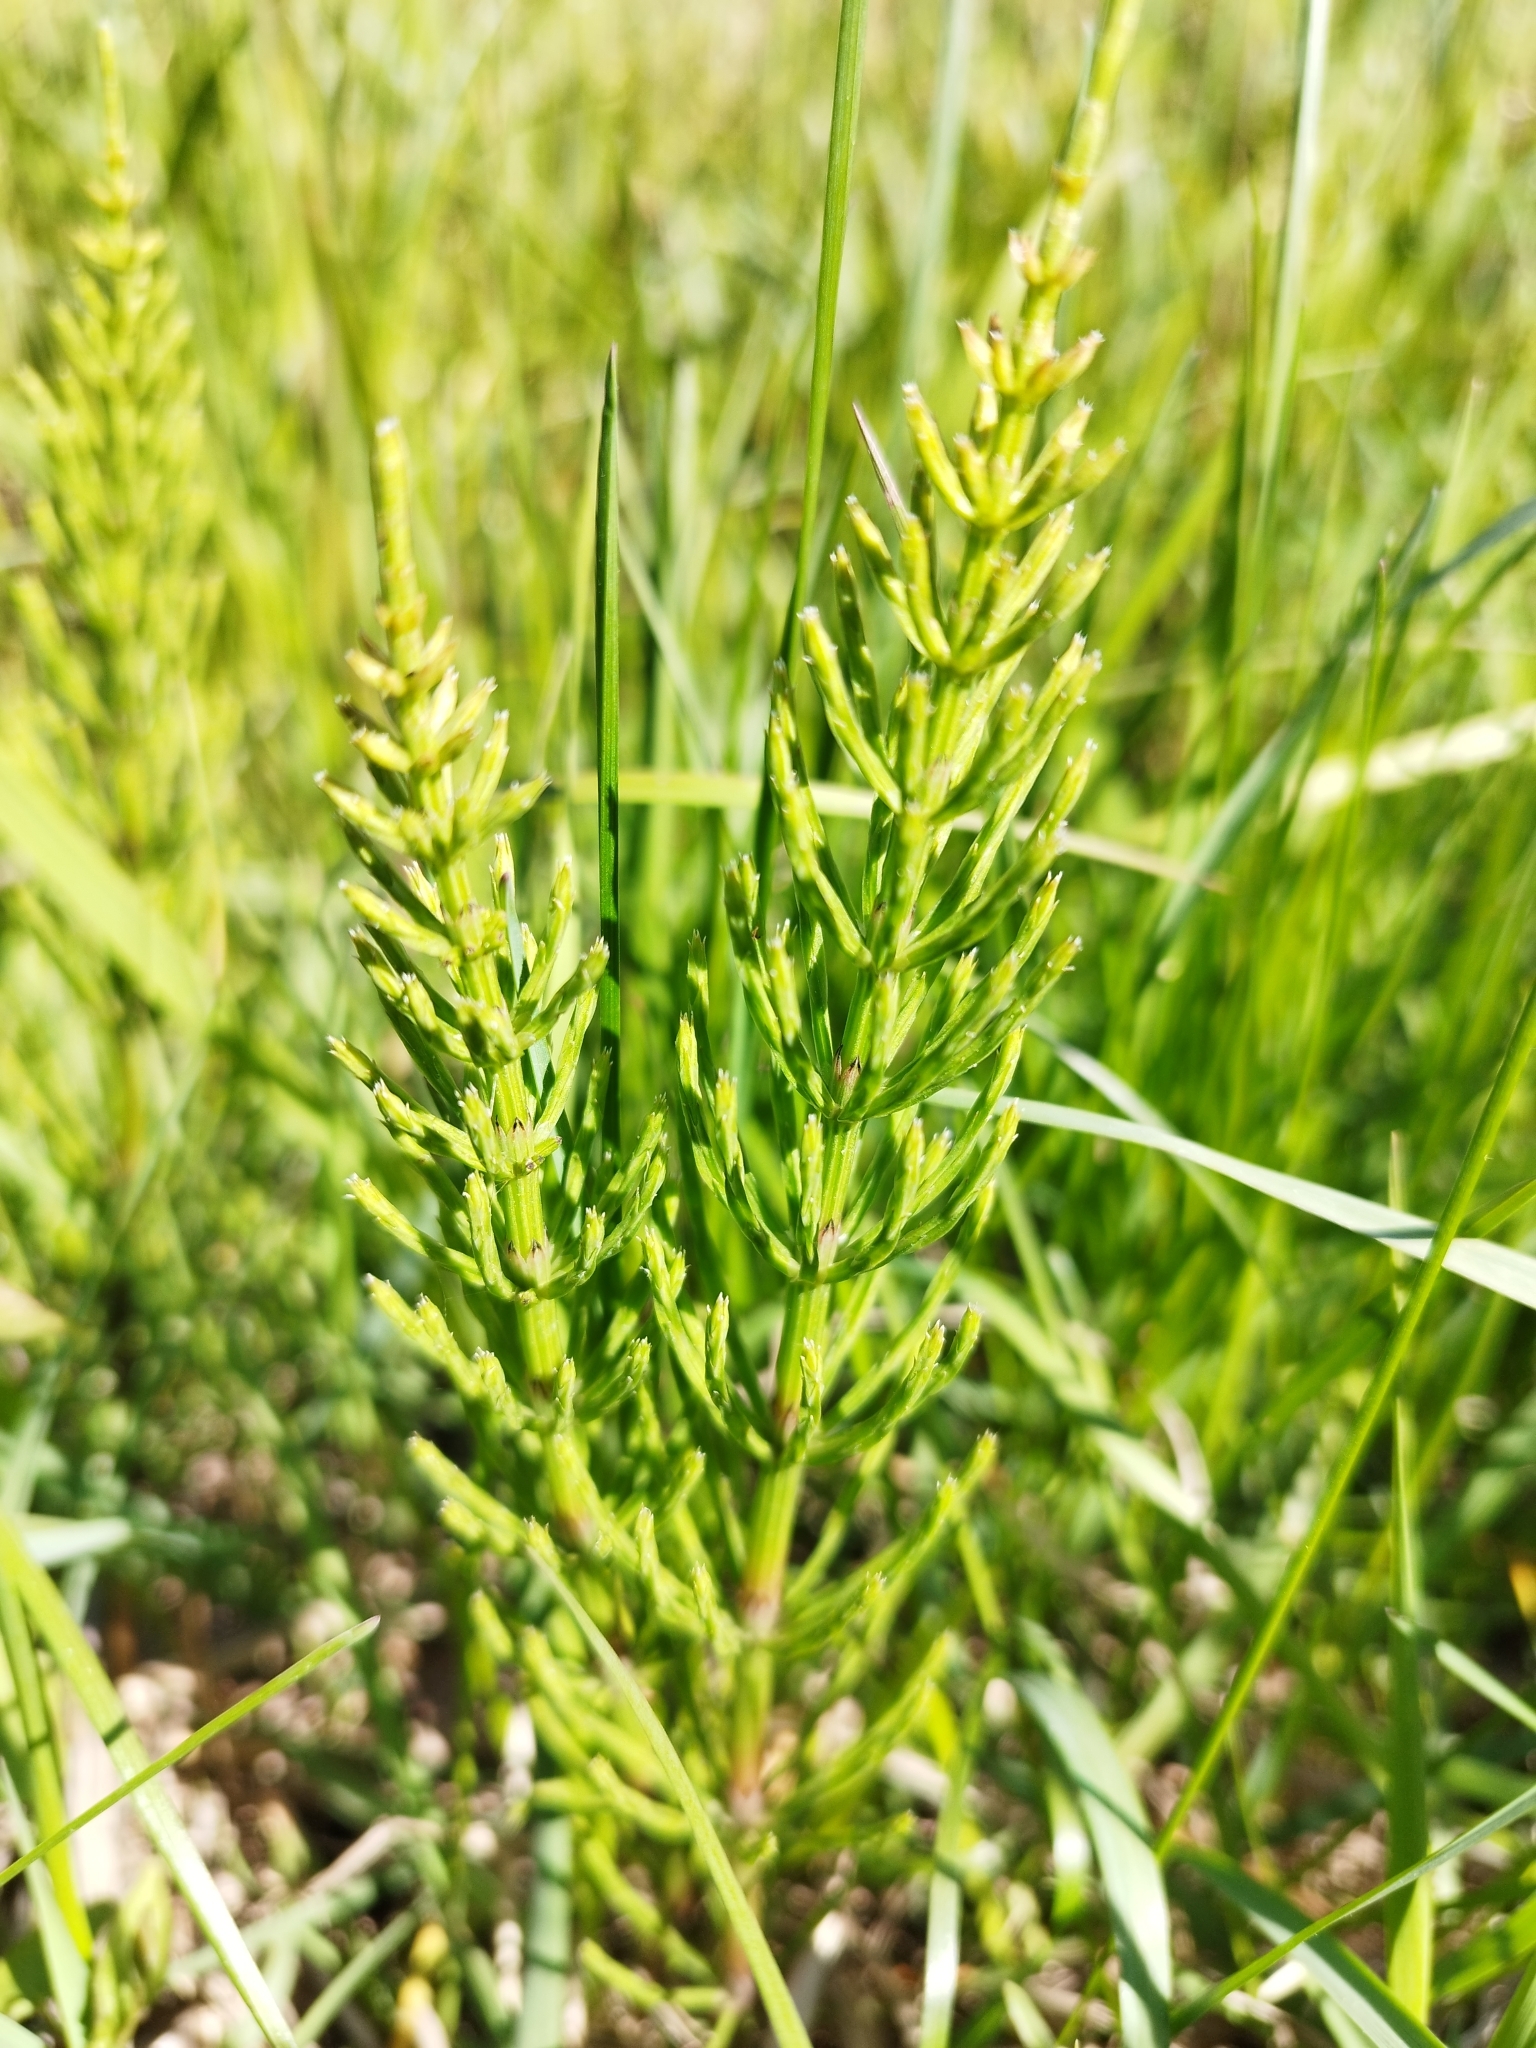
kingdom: Plantae
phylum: Tracheophyta
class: Polypodiopsida
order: Equisetales
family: Equisetaceae
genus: Equisetum
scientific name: Equisetum arvense
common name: Field horsetail
